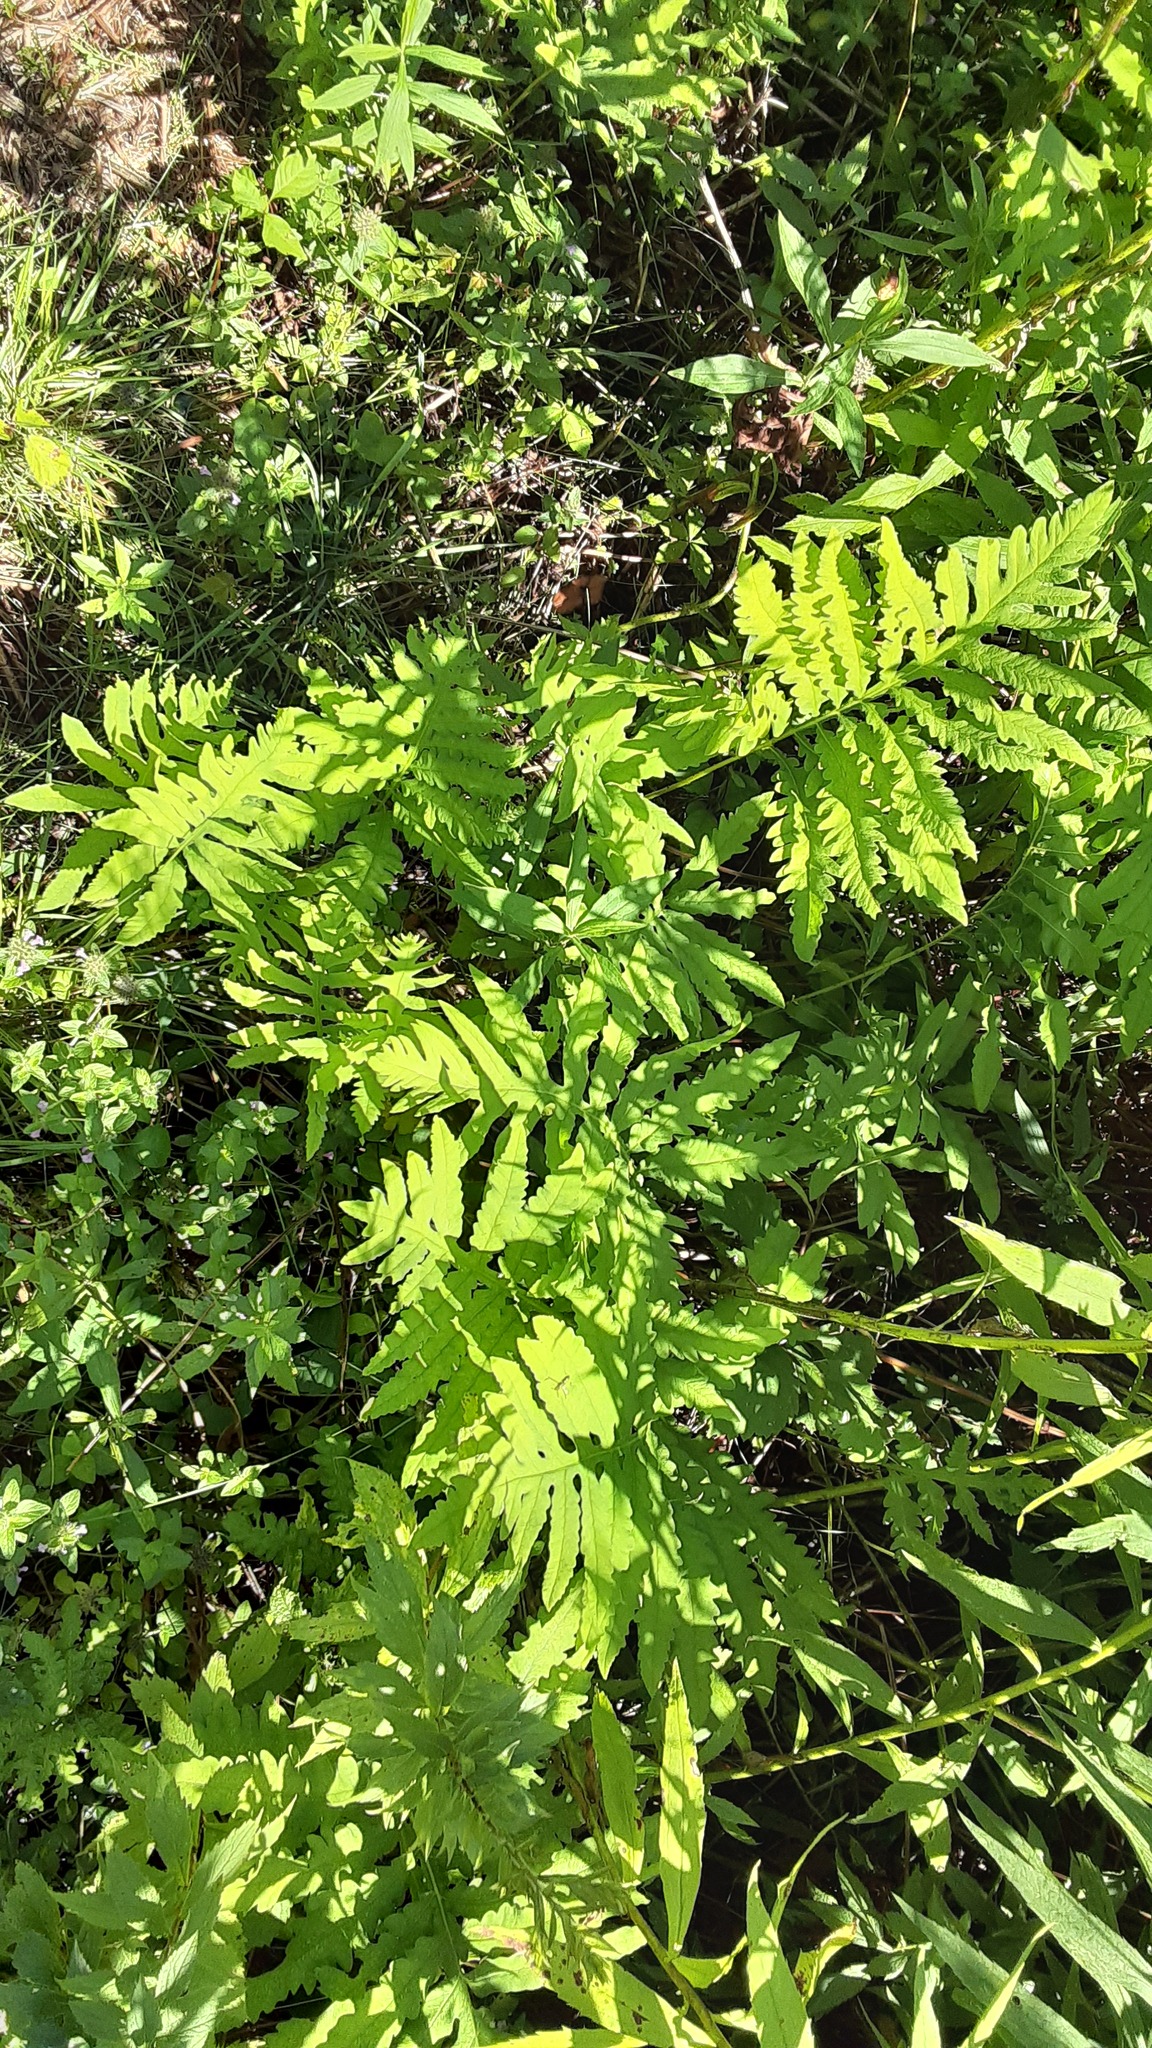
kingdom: Plantae
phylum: Tracheophyta
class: Polypodiopsida
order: Polypodiales
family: Onocleaceae
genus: Onoclea
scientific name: Onoclea sensibilis
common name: Sensitive fern
